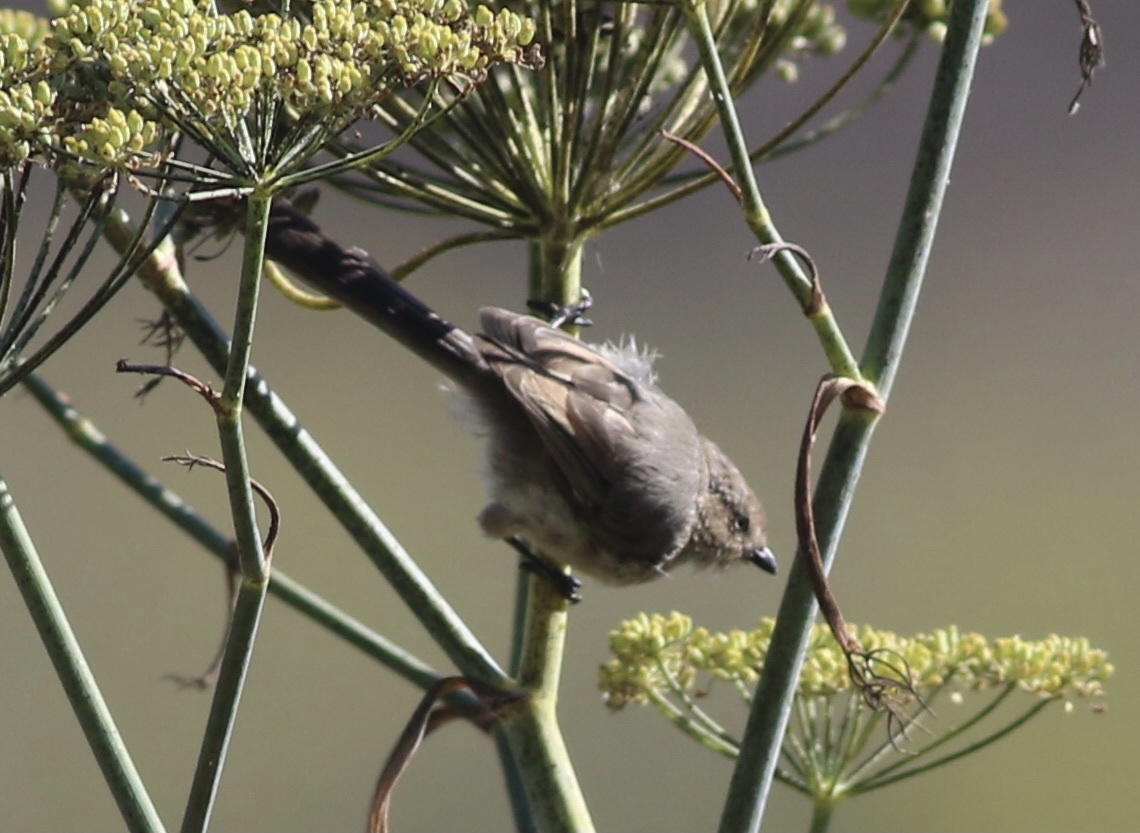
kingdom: Animalia
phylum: Chordata
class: Aves
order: Passeriformes
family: Aegithalidae
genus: Psaltriparus
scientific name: Psaltriparus minimus
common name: American bushtit
